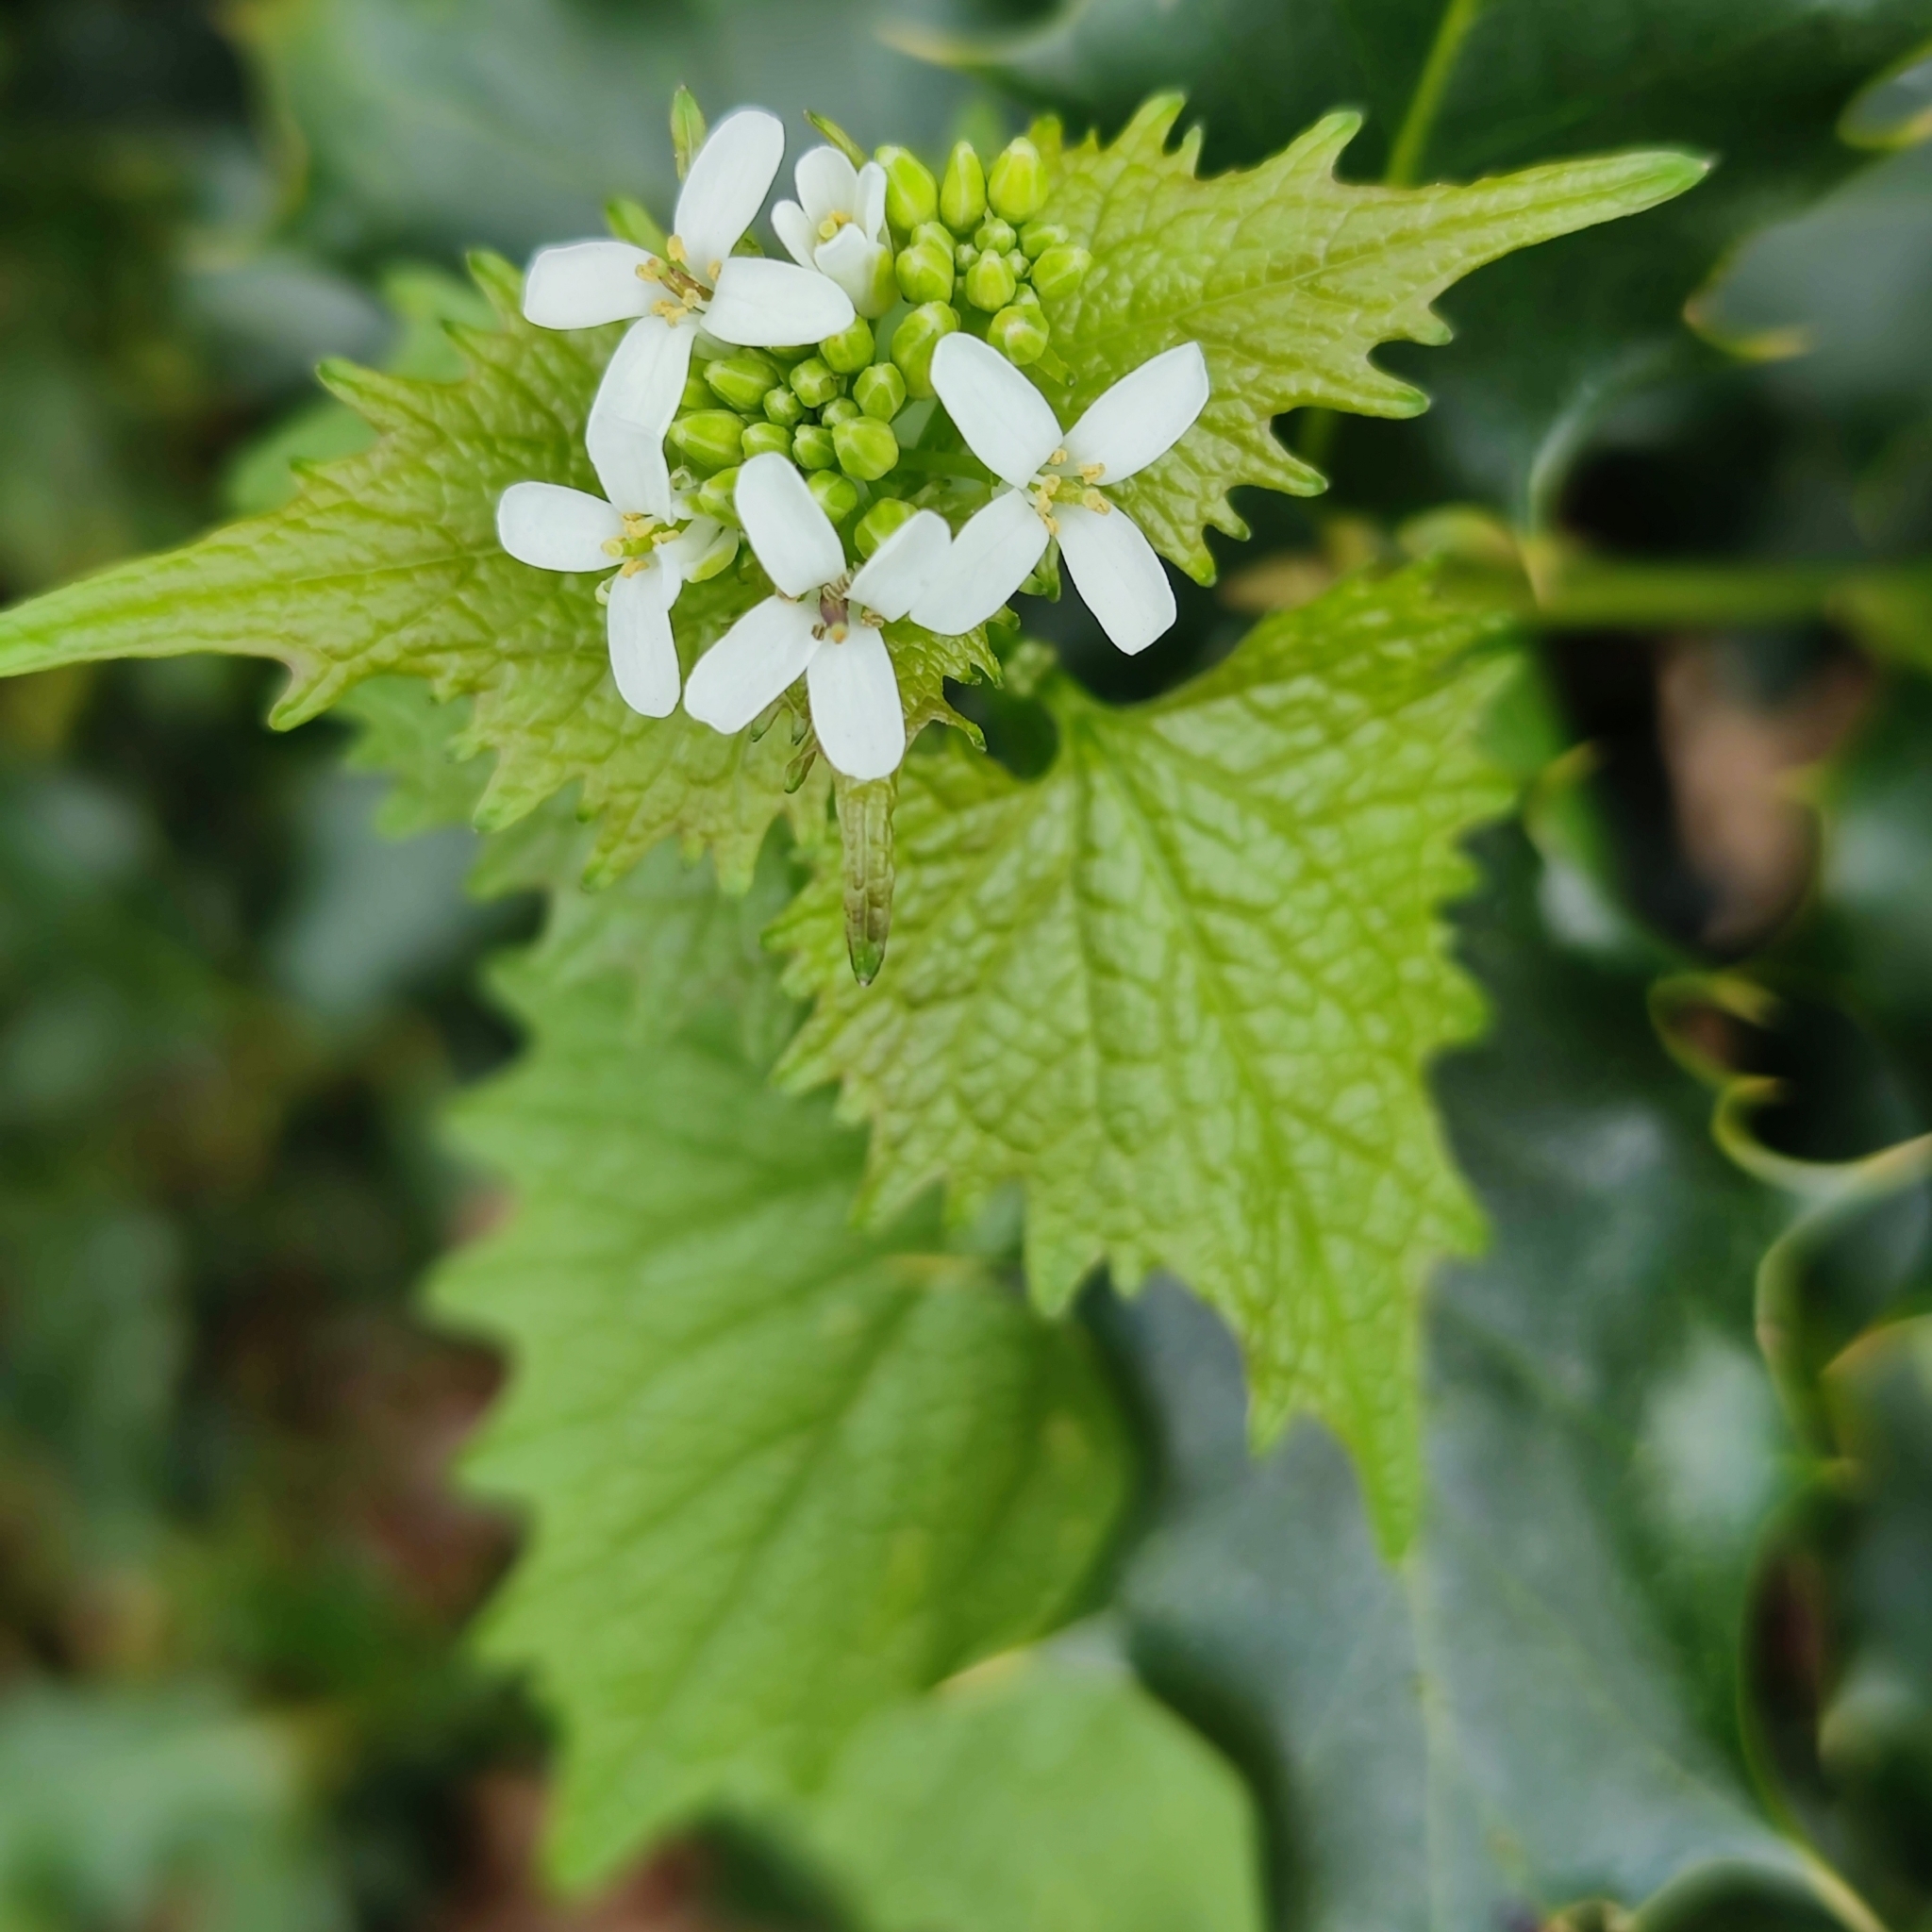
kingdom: Plantae
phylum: Tracheophyta
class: Magnoliopsida
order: Brassicales
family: Brassicaceae
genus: Alliaria
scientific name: Alliaria petiolata
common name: Garlic mustard
